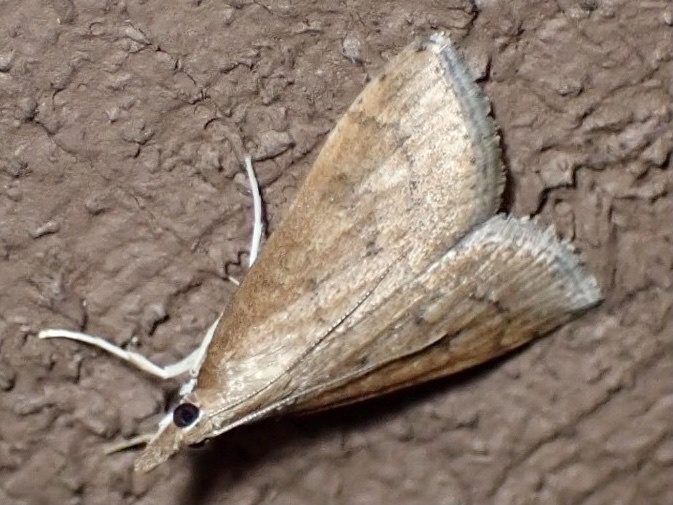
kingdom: Animalia
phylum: Arthropoda
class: Insecta
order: Lepidoptera
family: Crambidae
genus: Udea
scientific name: Udea rubigalis
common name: Celery leaftier moth
